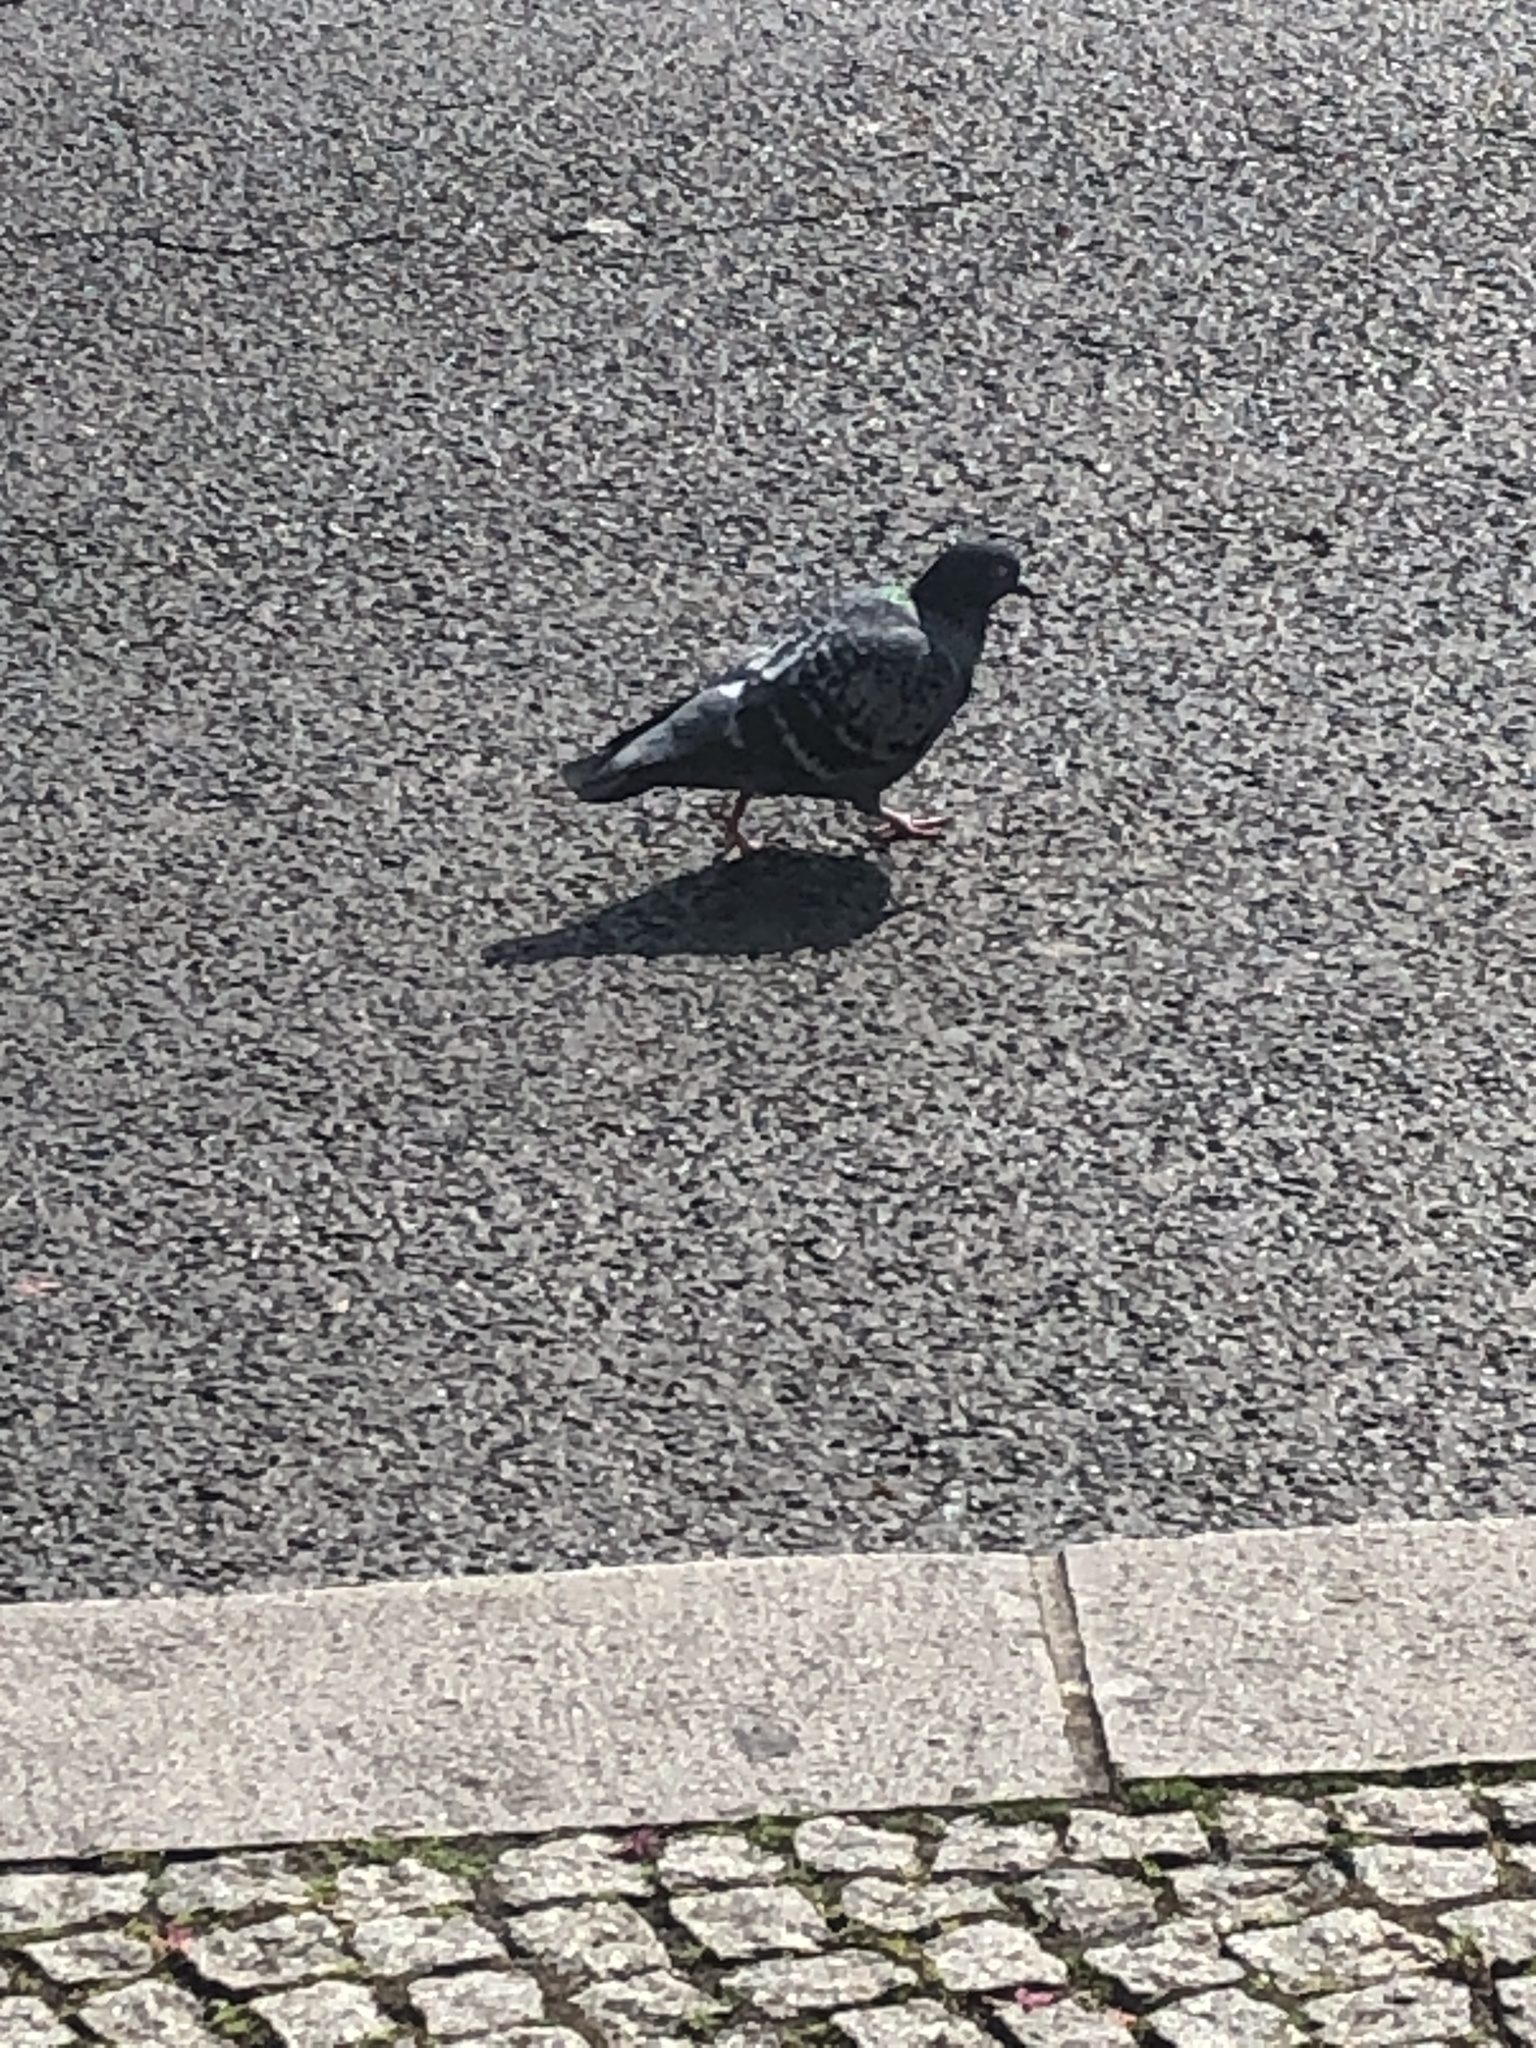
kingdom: Animalia
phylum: Chordata
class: Aves
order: Columbiformes
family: Columbidae
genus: Columba
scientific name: Columba livia
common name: Rock pigeon
